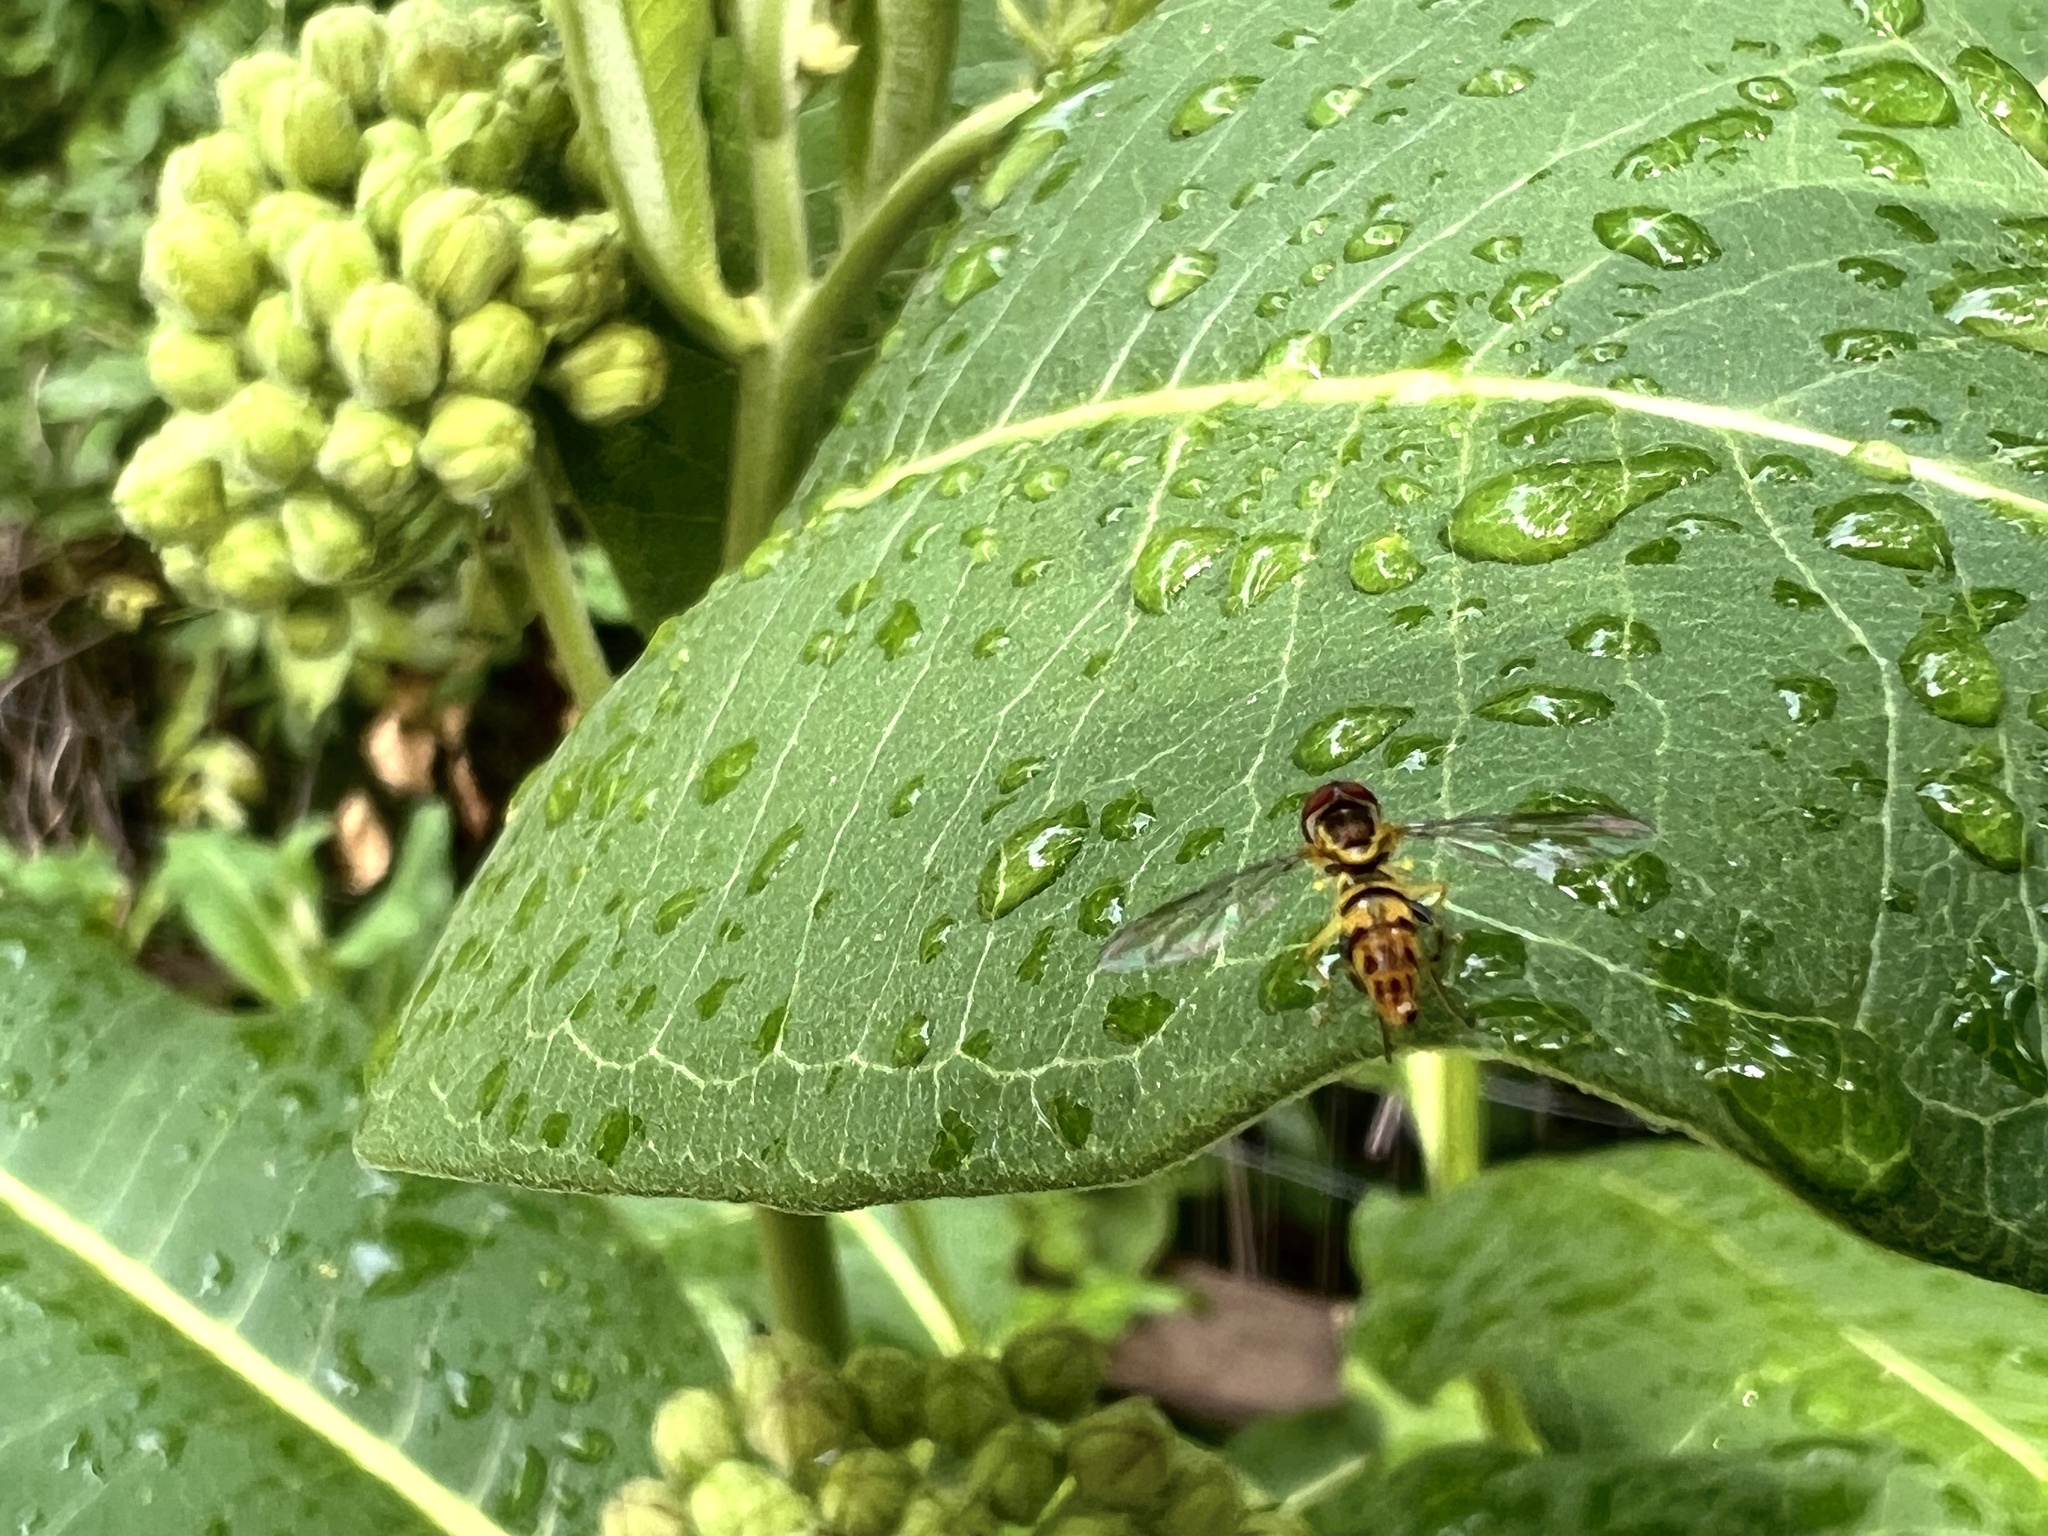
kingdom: Animalia
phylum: Arthropoda
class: Insecta
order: Diptera
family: Syrphidae
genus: Toxomerus
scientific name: Toxomerus geminatus
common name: Eastern calligrapher
